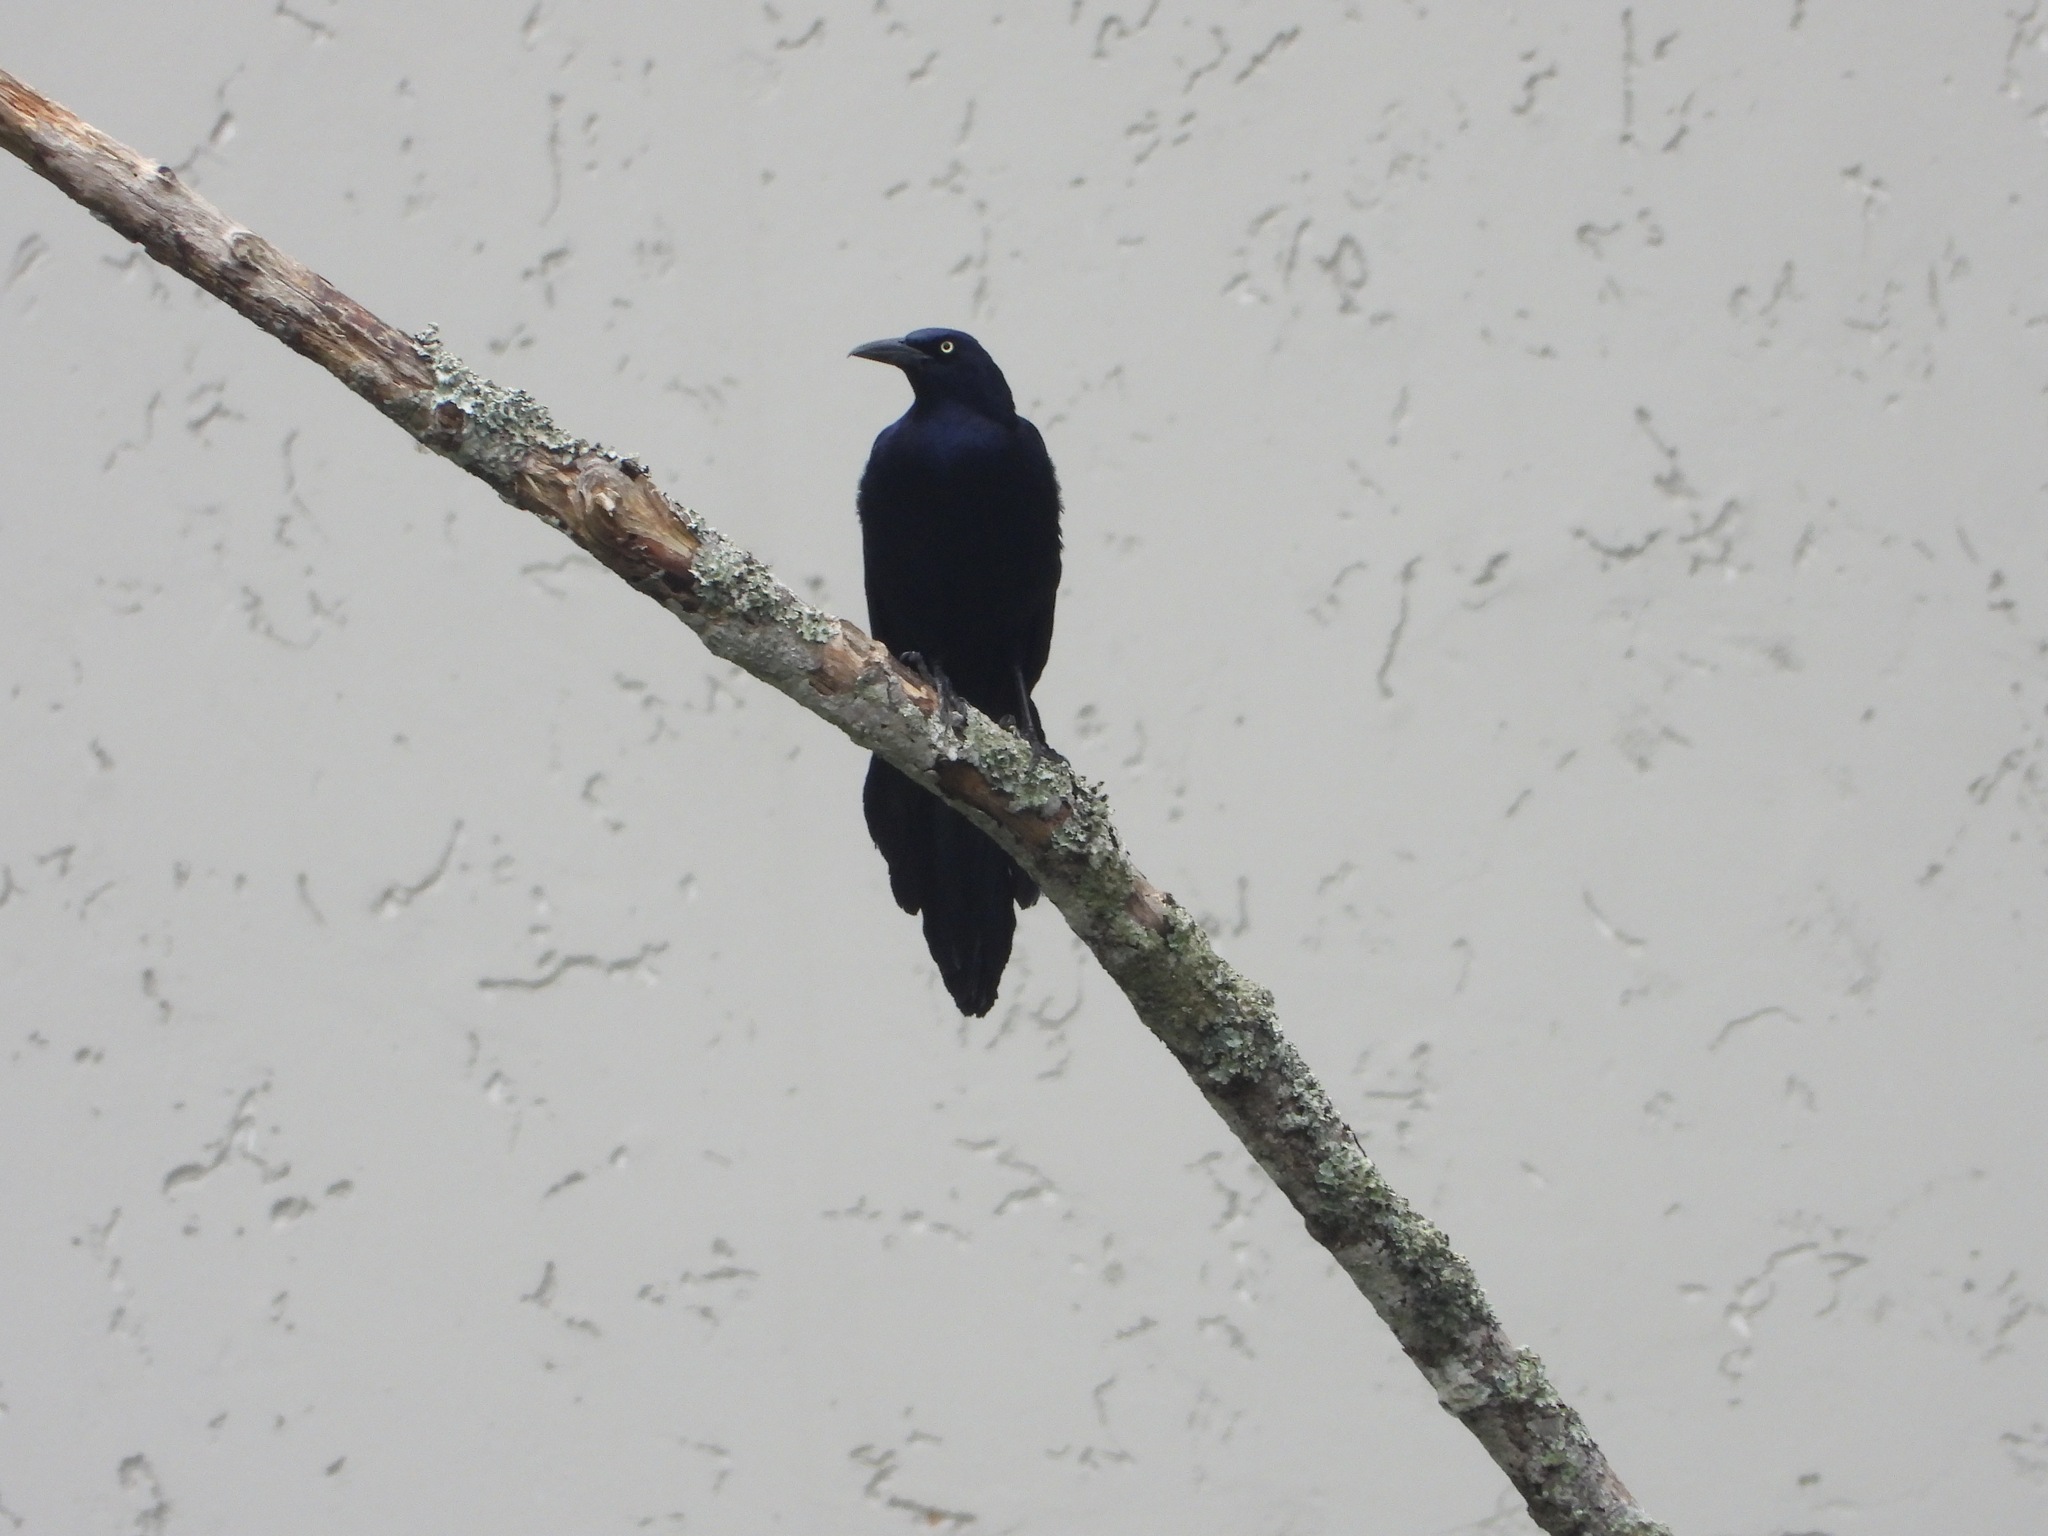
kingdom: Animalia
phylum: Chordata
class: Aves
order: Passeriformes
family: Icteridae
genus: Quiscalus
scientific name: Quiscalus mexicanus
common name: Great-tailed grackle
